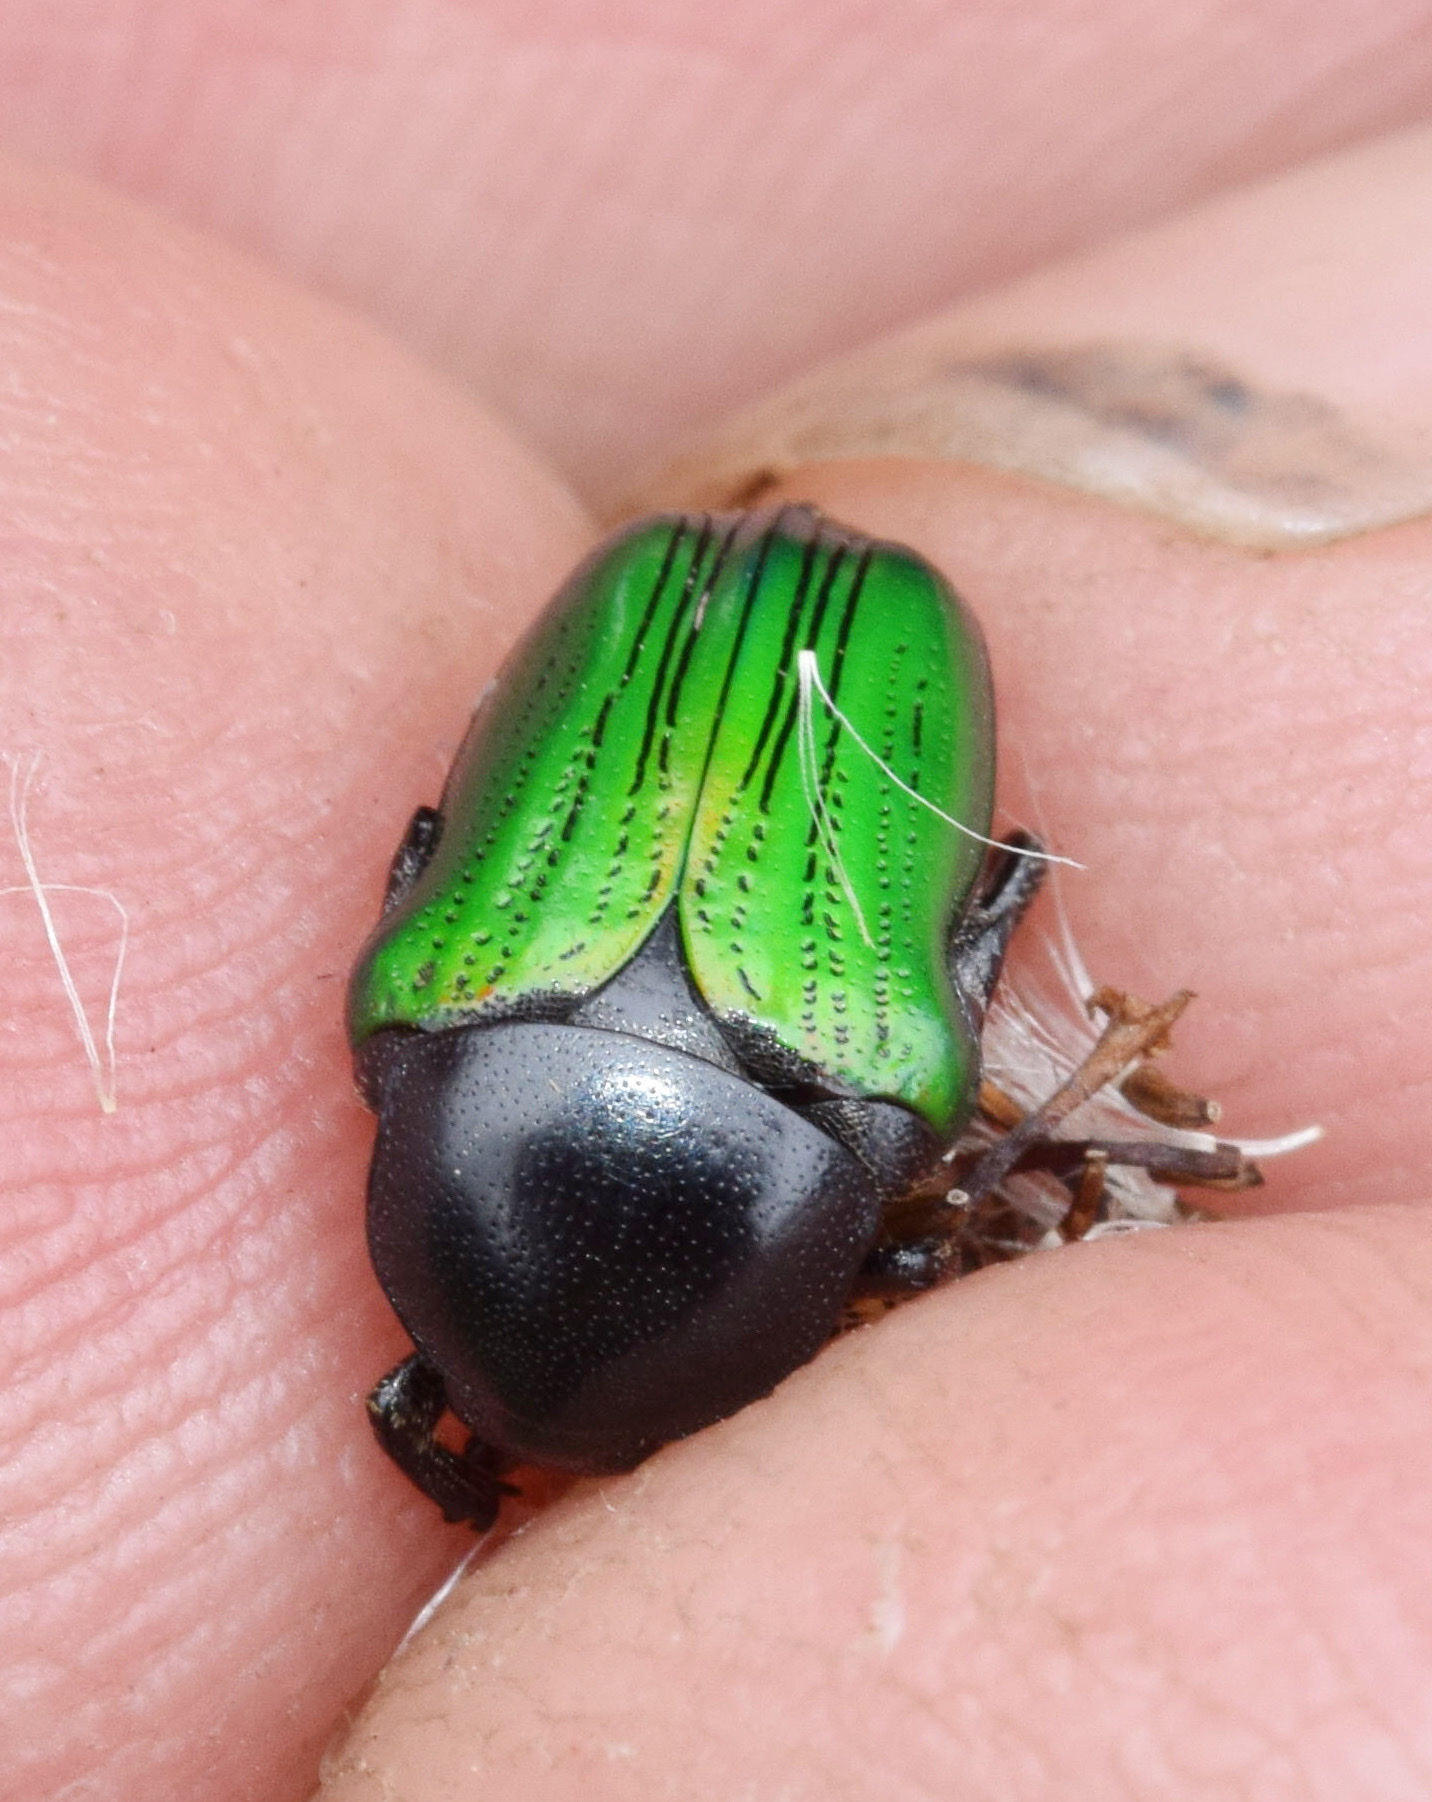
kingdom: Animalia
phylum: Arthropoda
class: Insecta
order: Coleoptera
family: Scarabaeidae
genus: Leucocelis
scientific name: Leucocelis haemorrhoidalis
